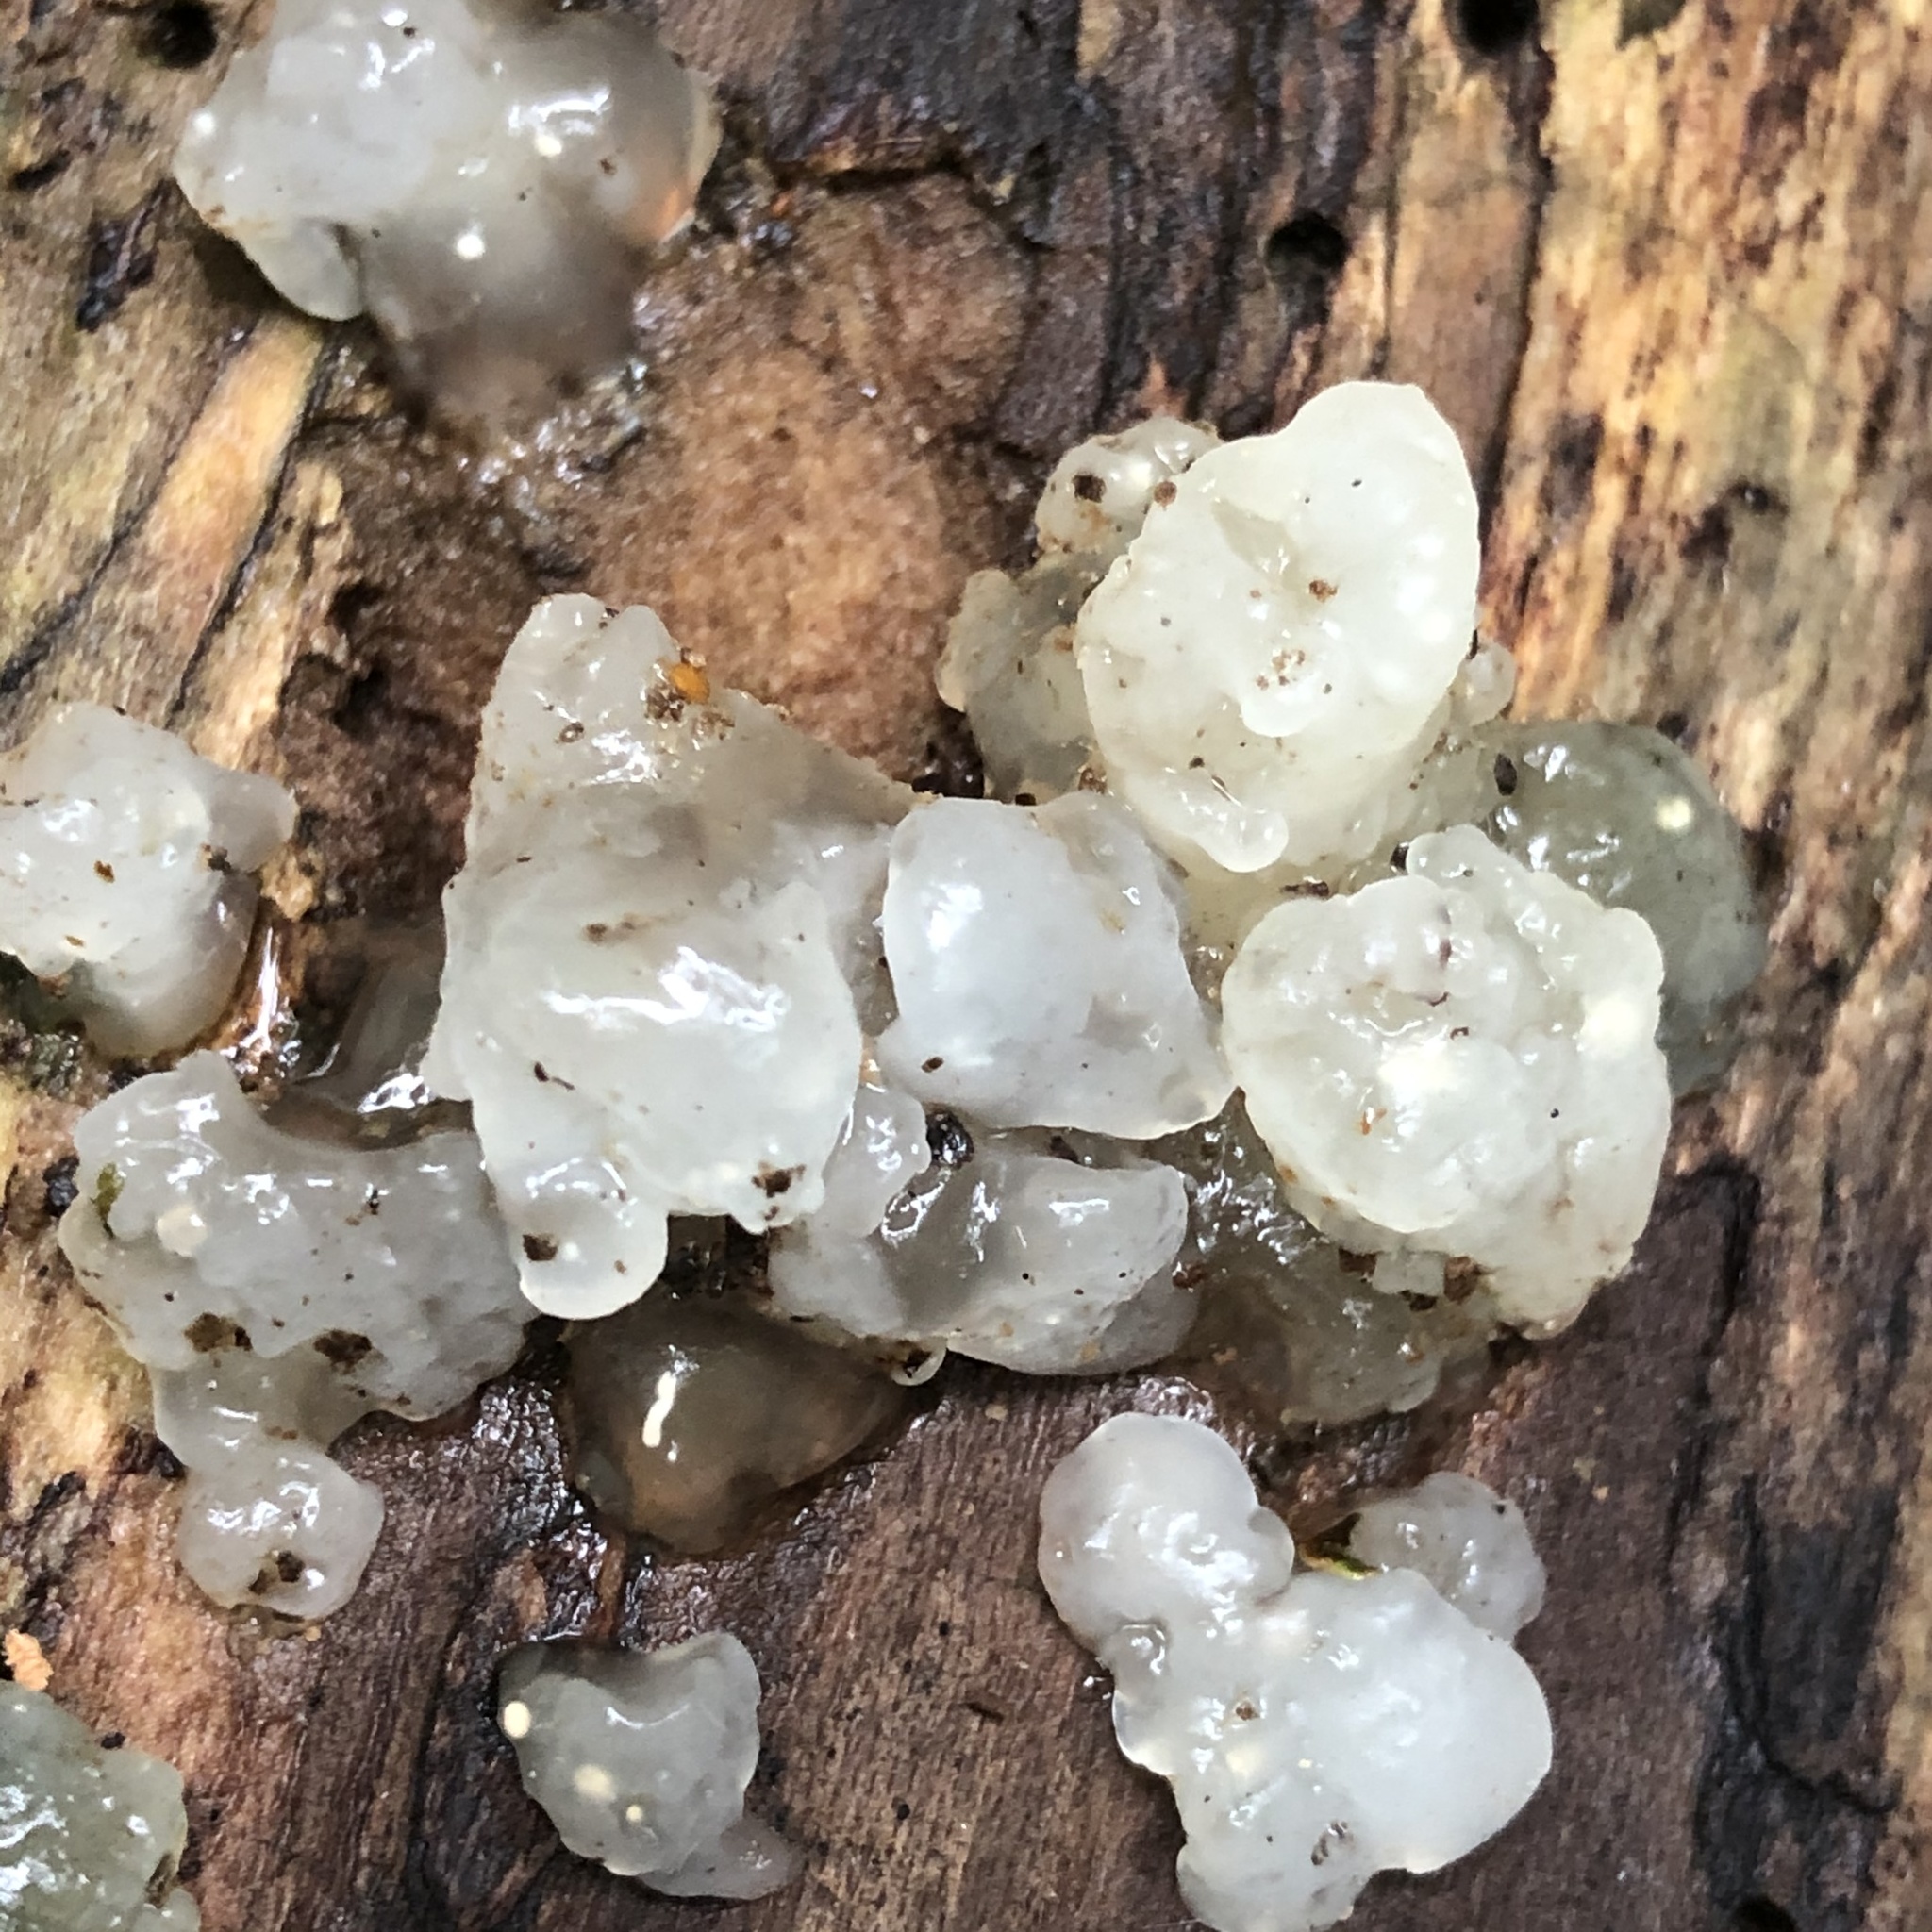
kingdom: Fungi
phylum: Basidiomycota
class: Agaricomycetes
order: Auriculariales
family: Hyaloriaceae
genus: Myxarium
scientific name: Myxarium nucleatum
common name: Crystal brain fungus
